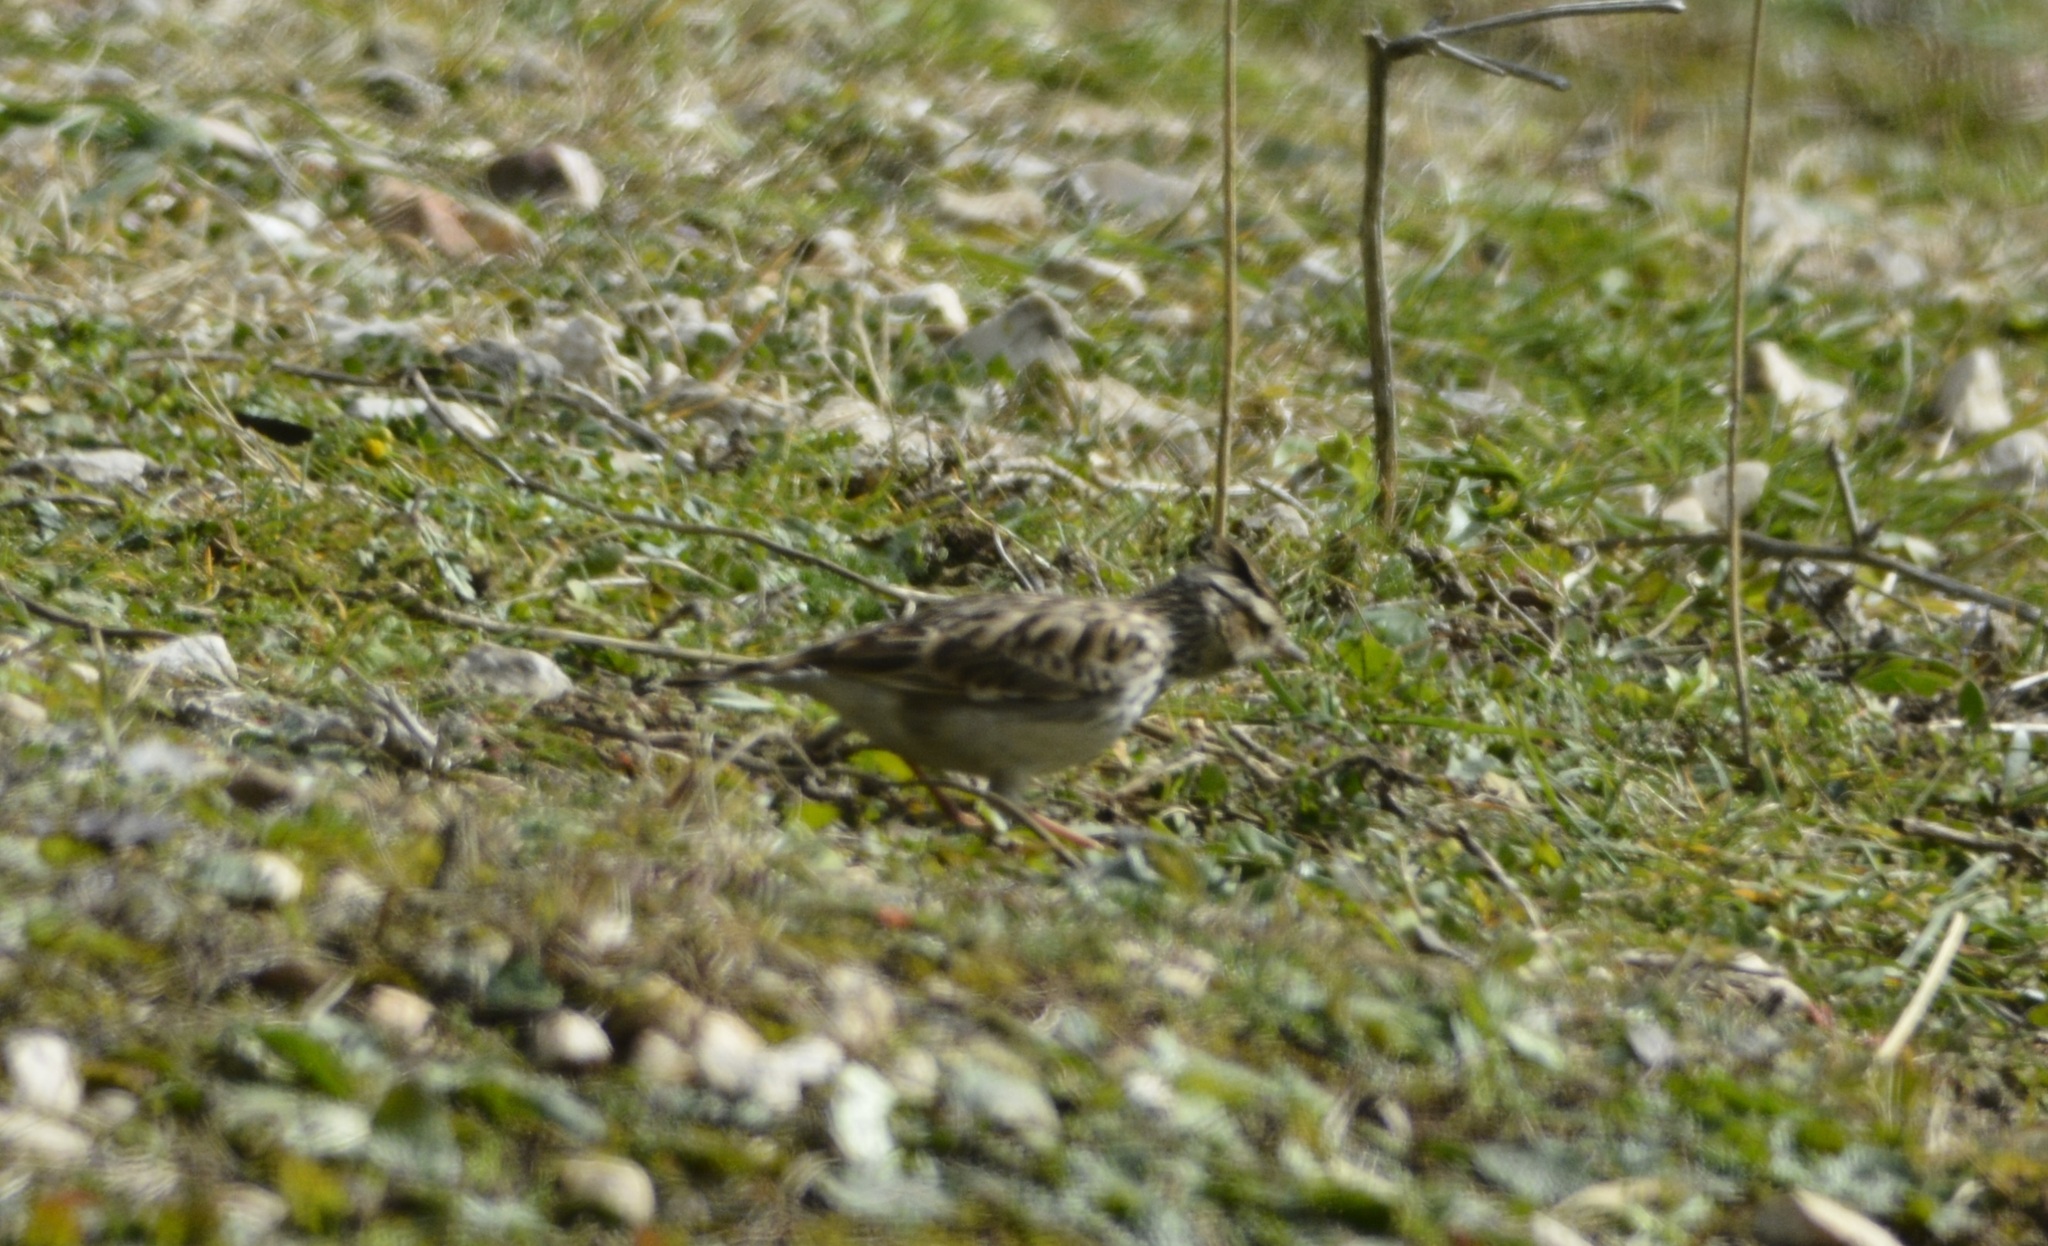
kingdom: Animalia
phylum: Chordata
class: Aves
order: Passeriformes
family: Alaudidae
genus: Lullula
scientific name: Lullula arborea
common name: Woodlark
